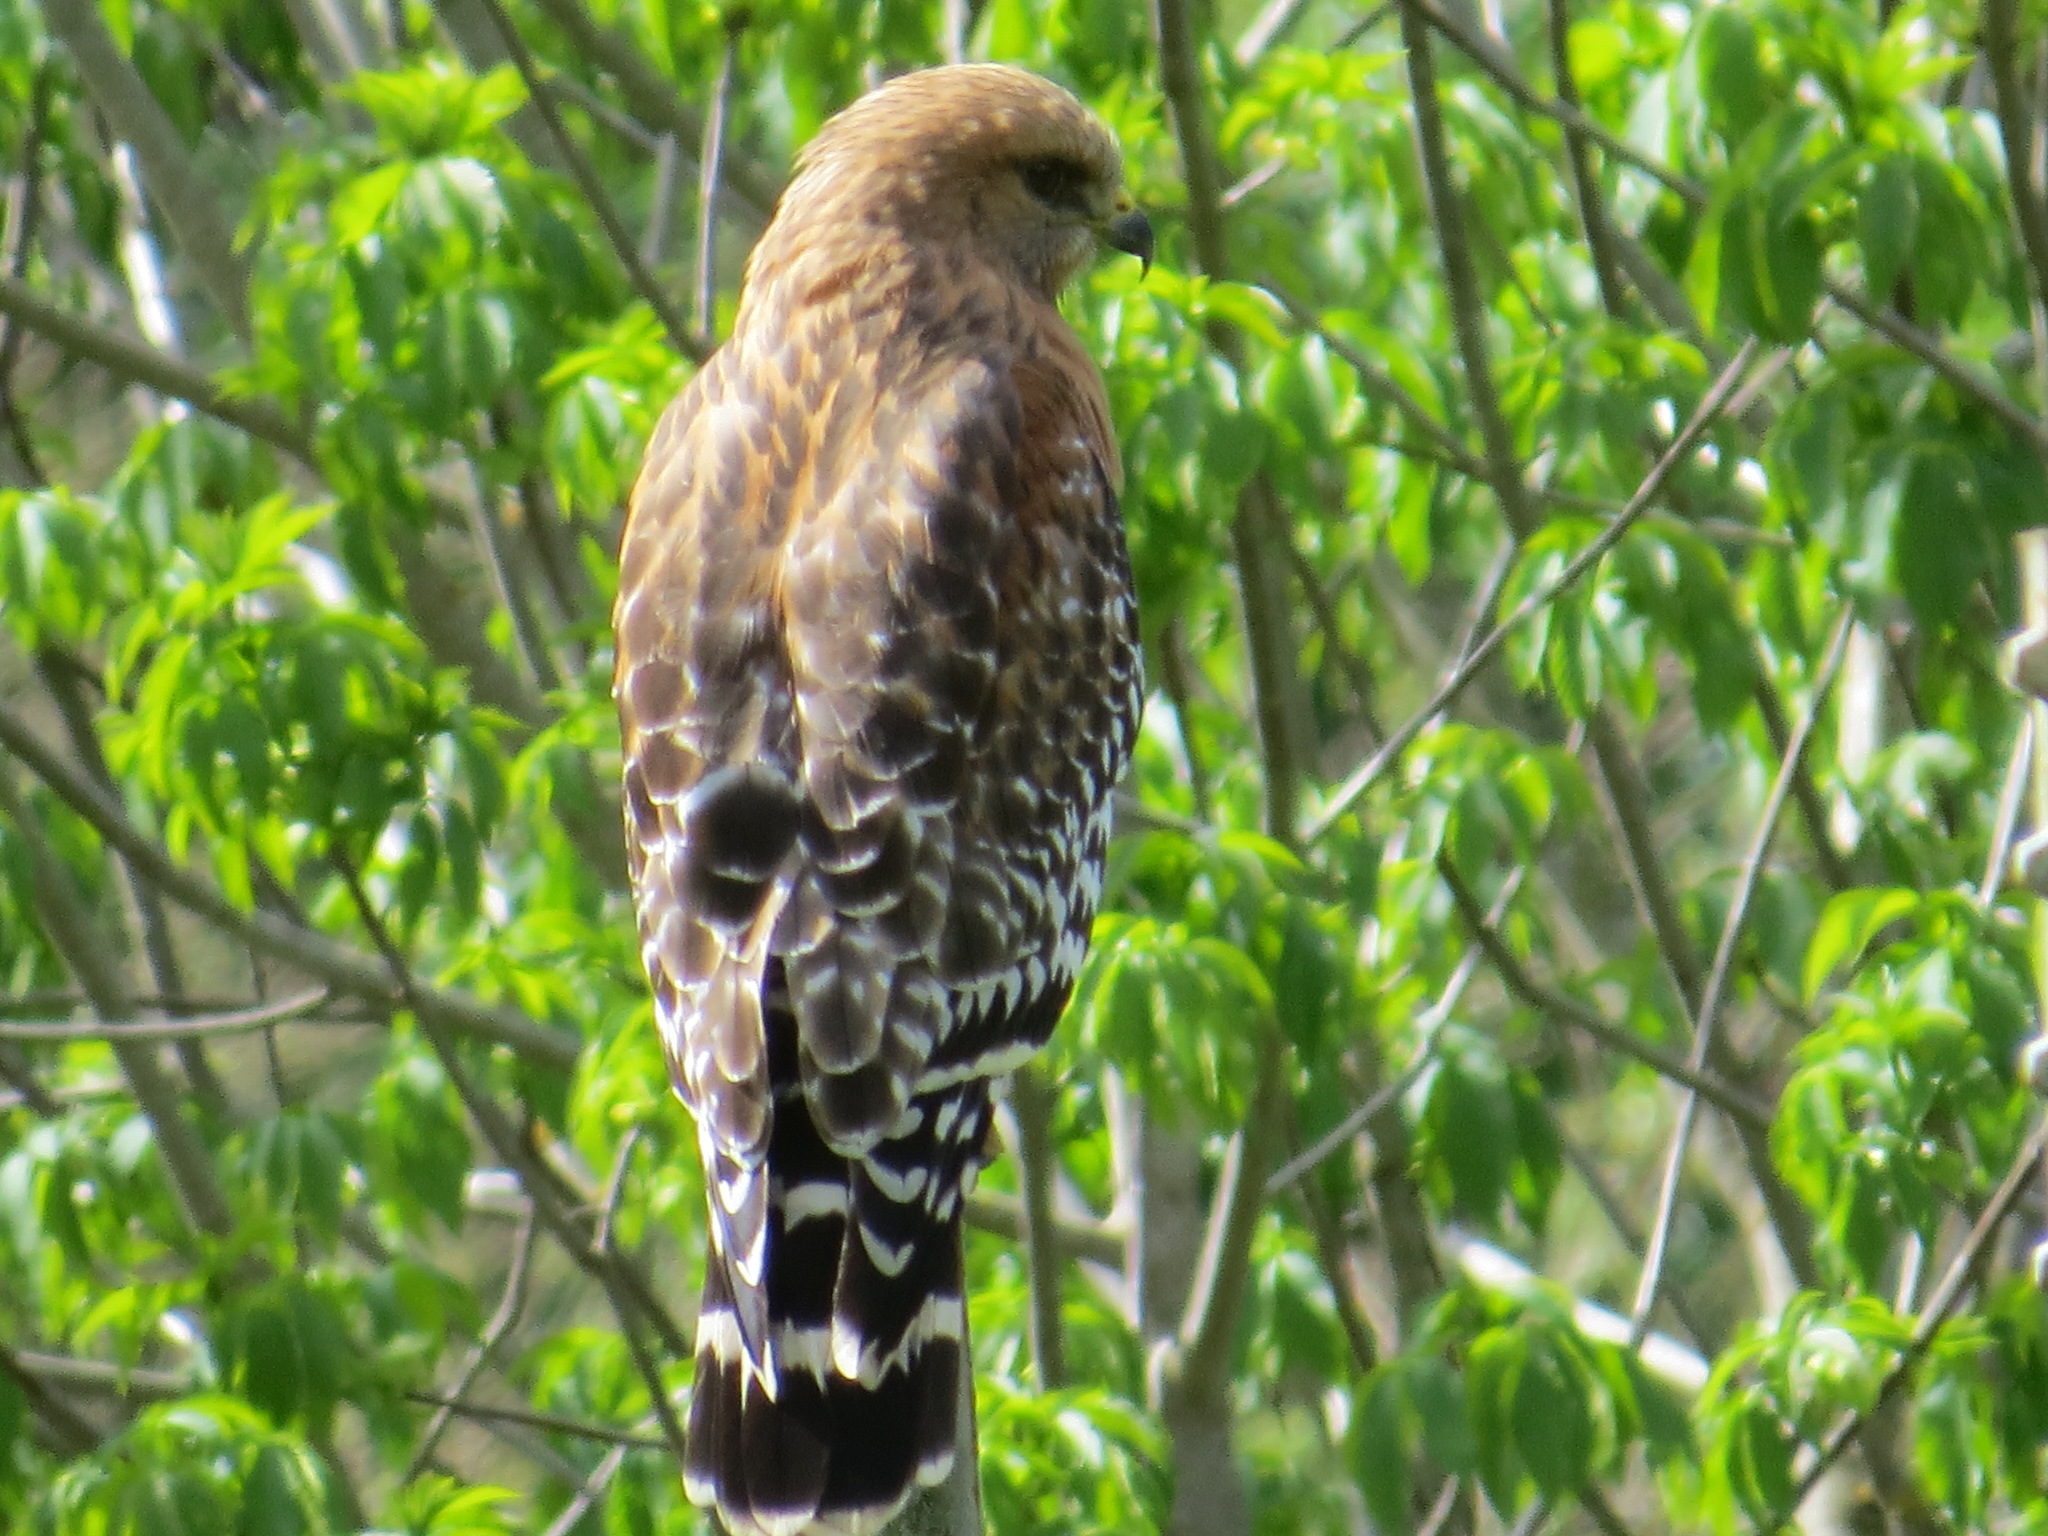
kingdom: Animalia
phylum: Chordata
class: Aves
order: Accipitriformes
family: Accipitridae
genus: Buteo
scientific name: Buteo lineatus
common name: Red-shouldered hawk
